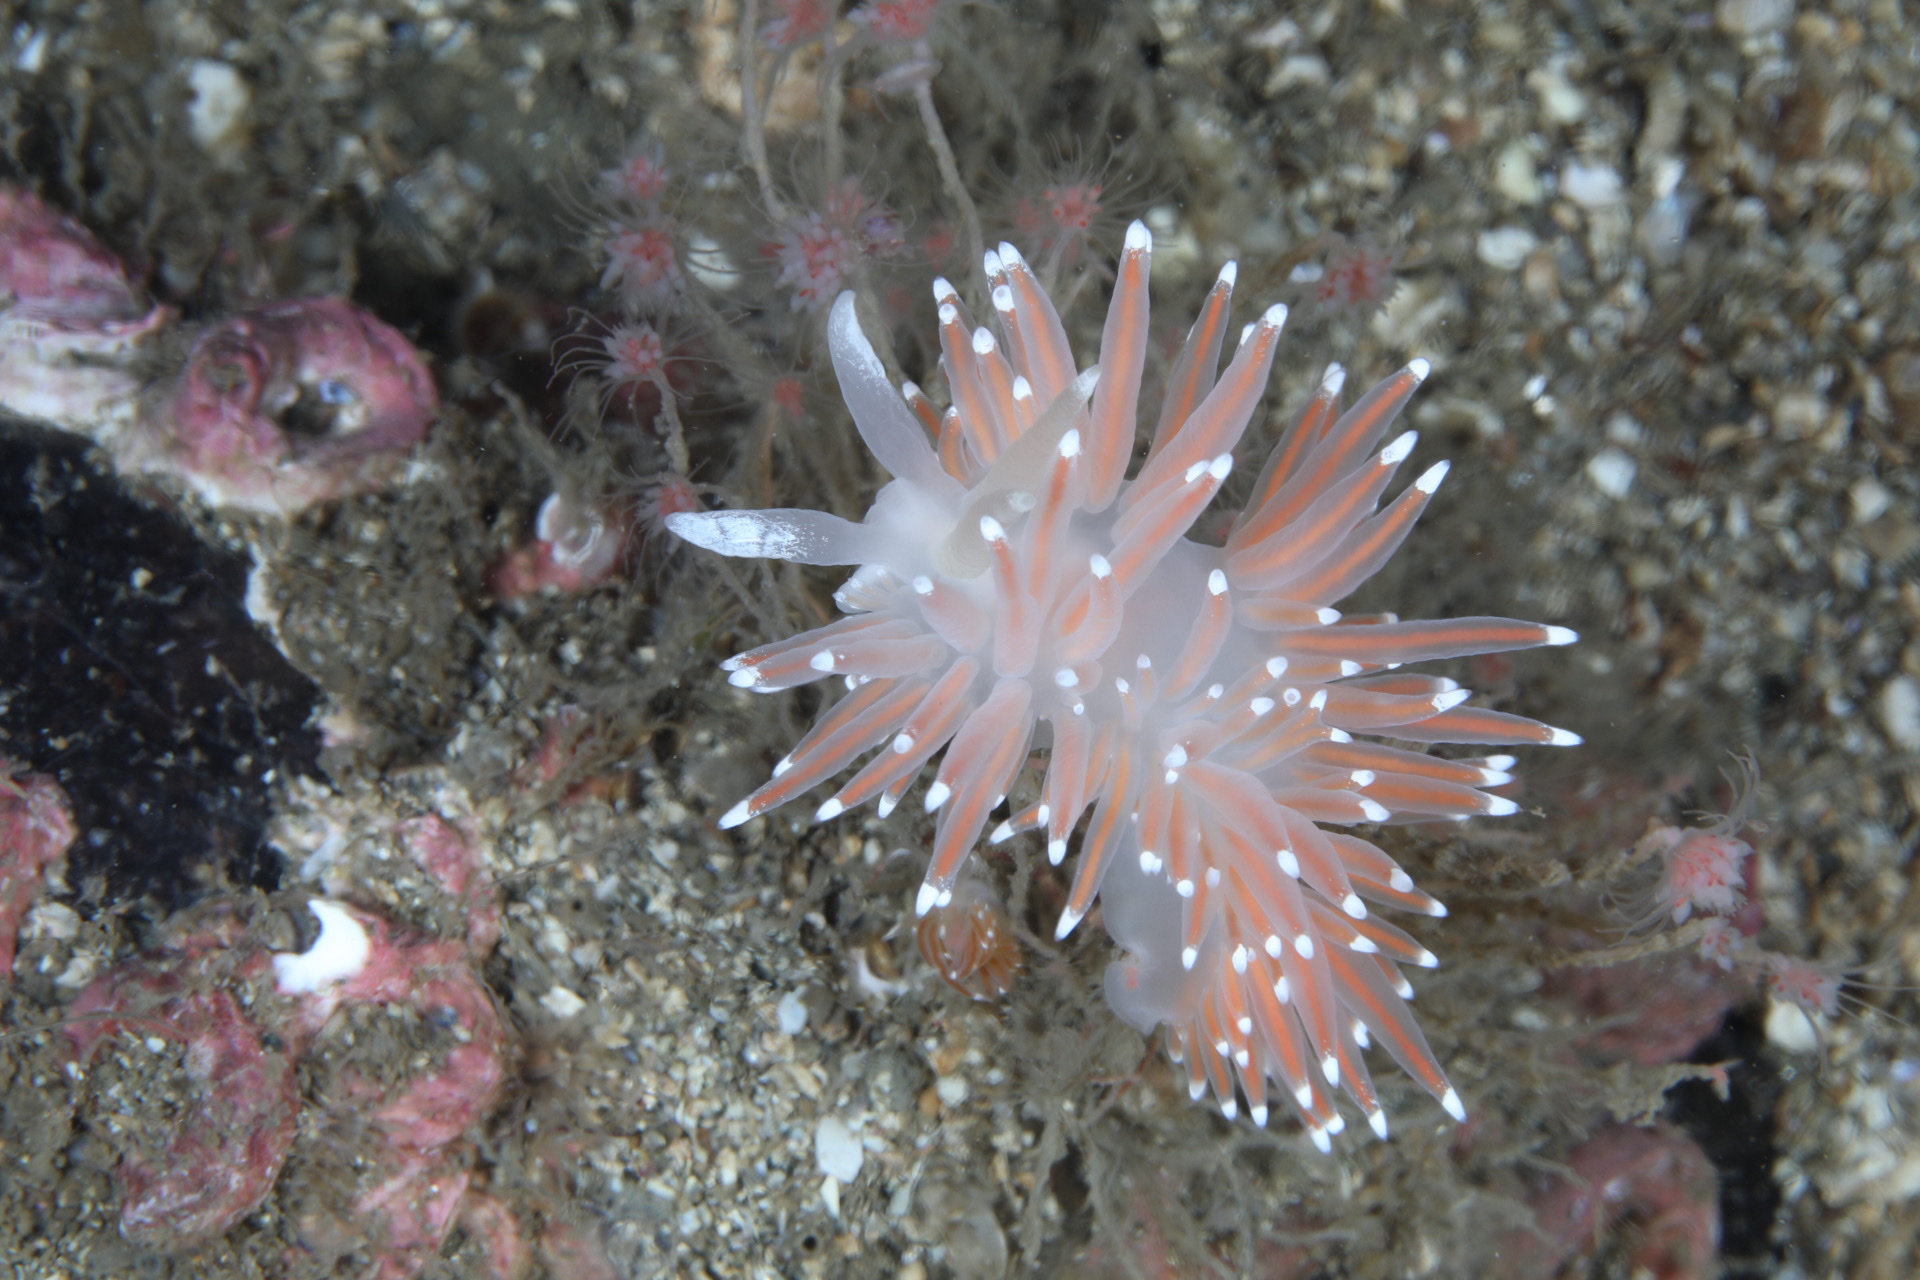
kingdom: Animalia
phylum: Mollusca
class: Gastropoda
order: Nudibranchia
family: Coryphellidae
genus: Coryphella
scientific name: Coryphella nobilis
